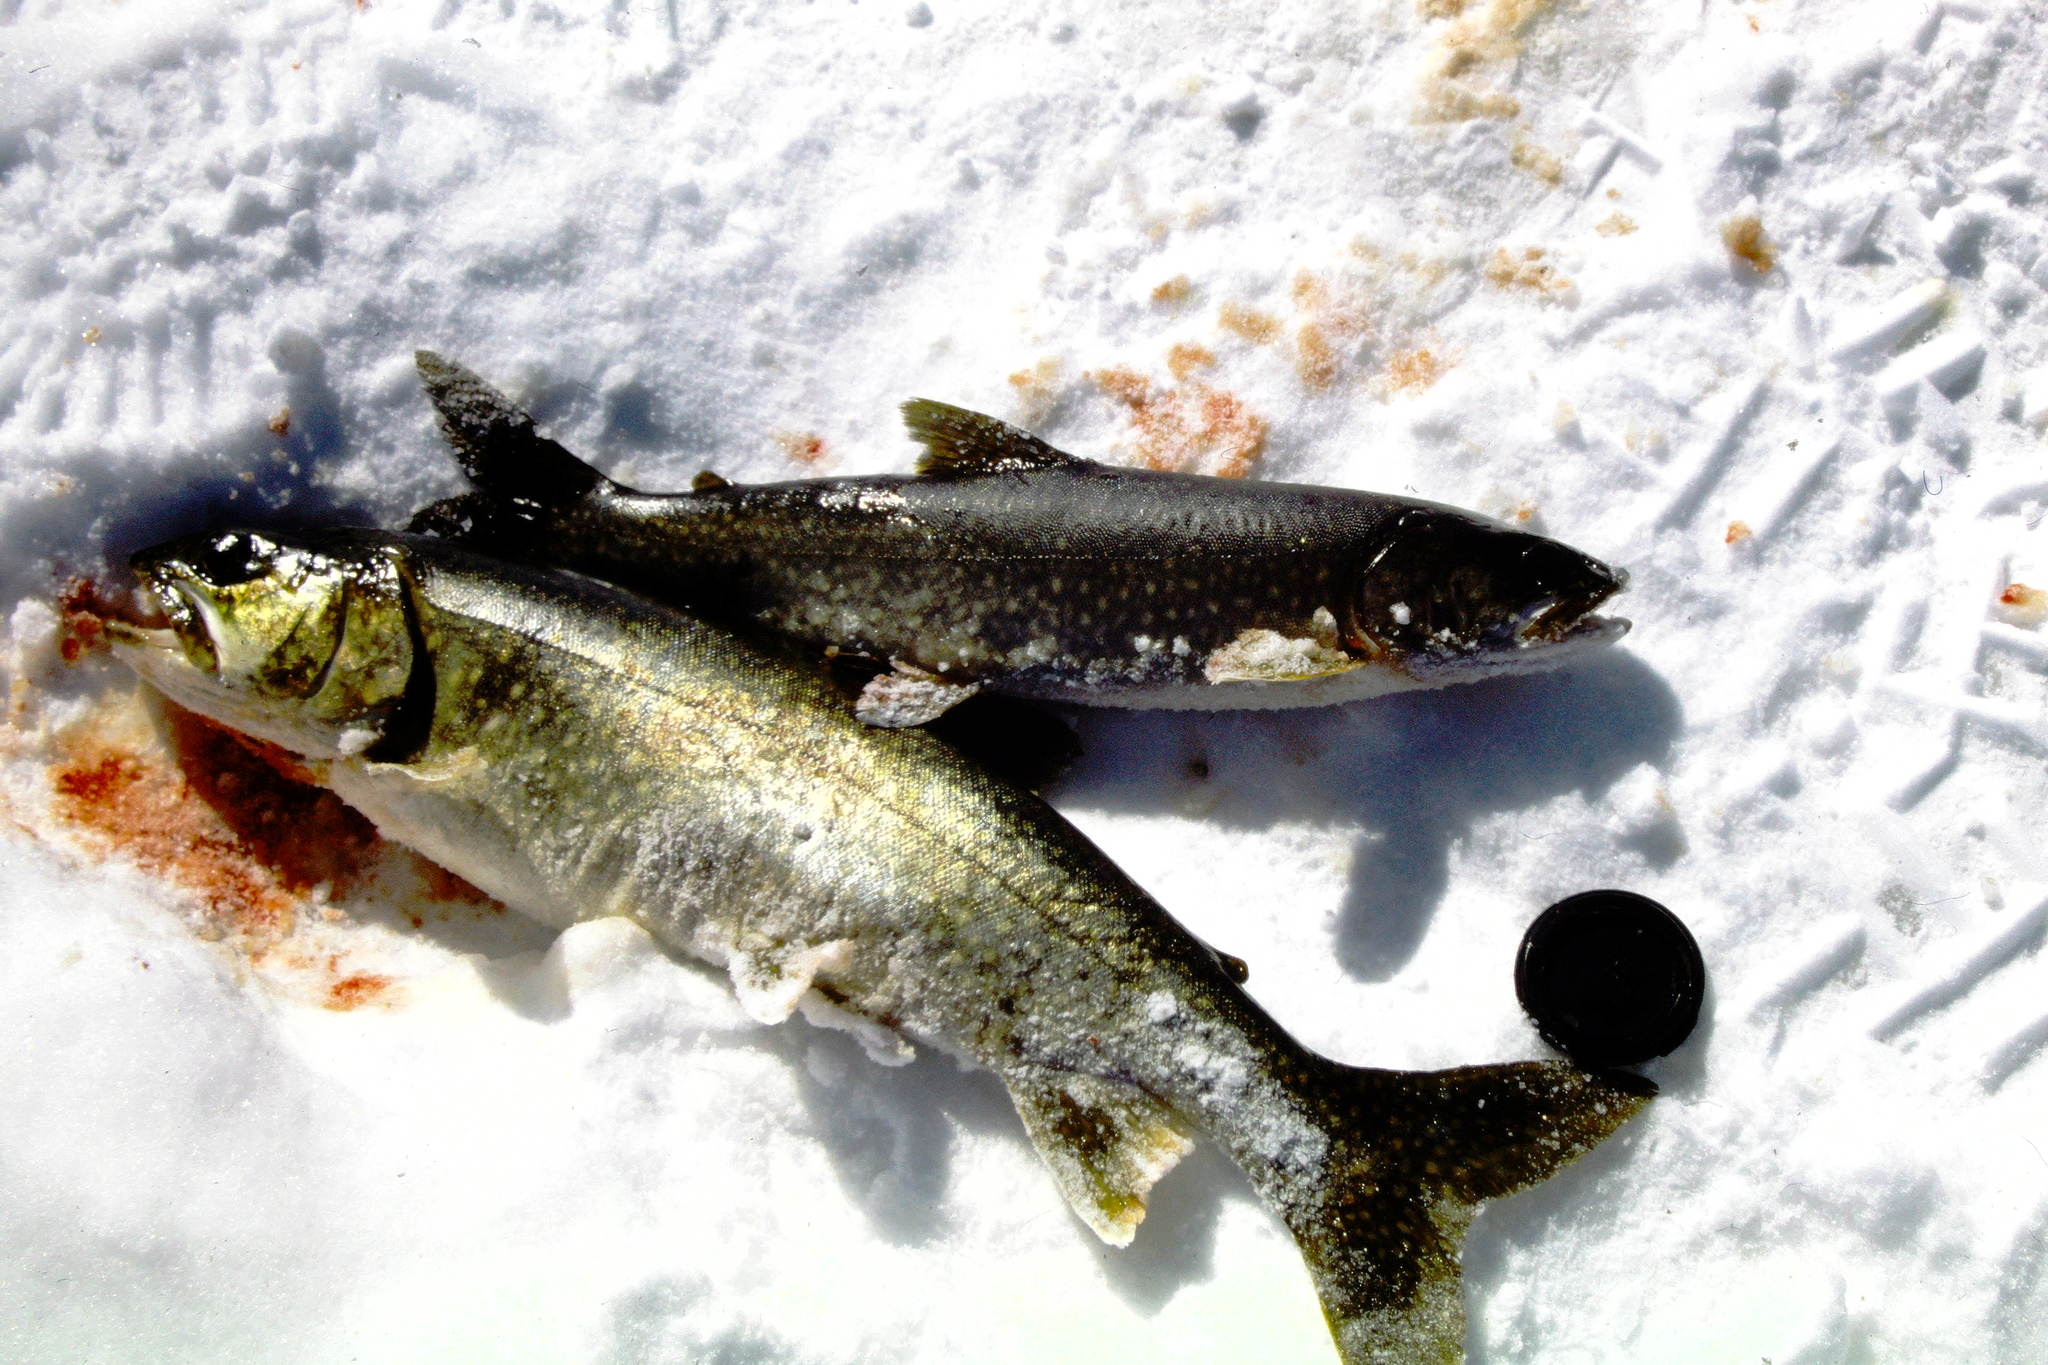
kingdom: Animalia
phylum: Chordata
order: Salmoniformes
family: Salmonidae
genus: Salvelinus
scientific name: Salvelinus namaycush
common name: American lake charr
